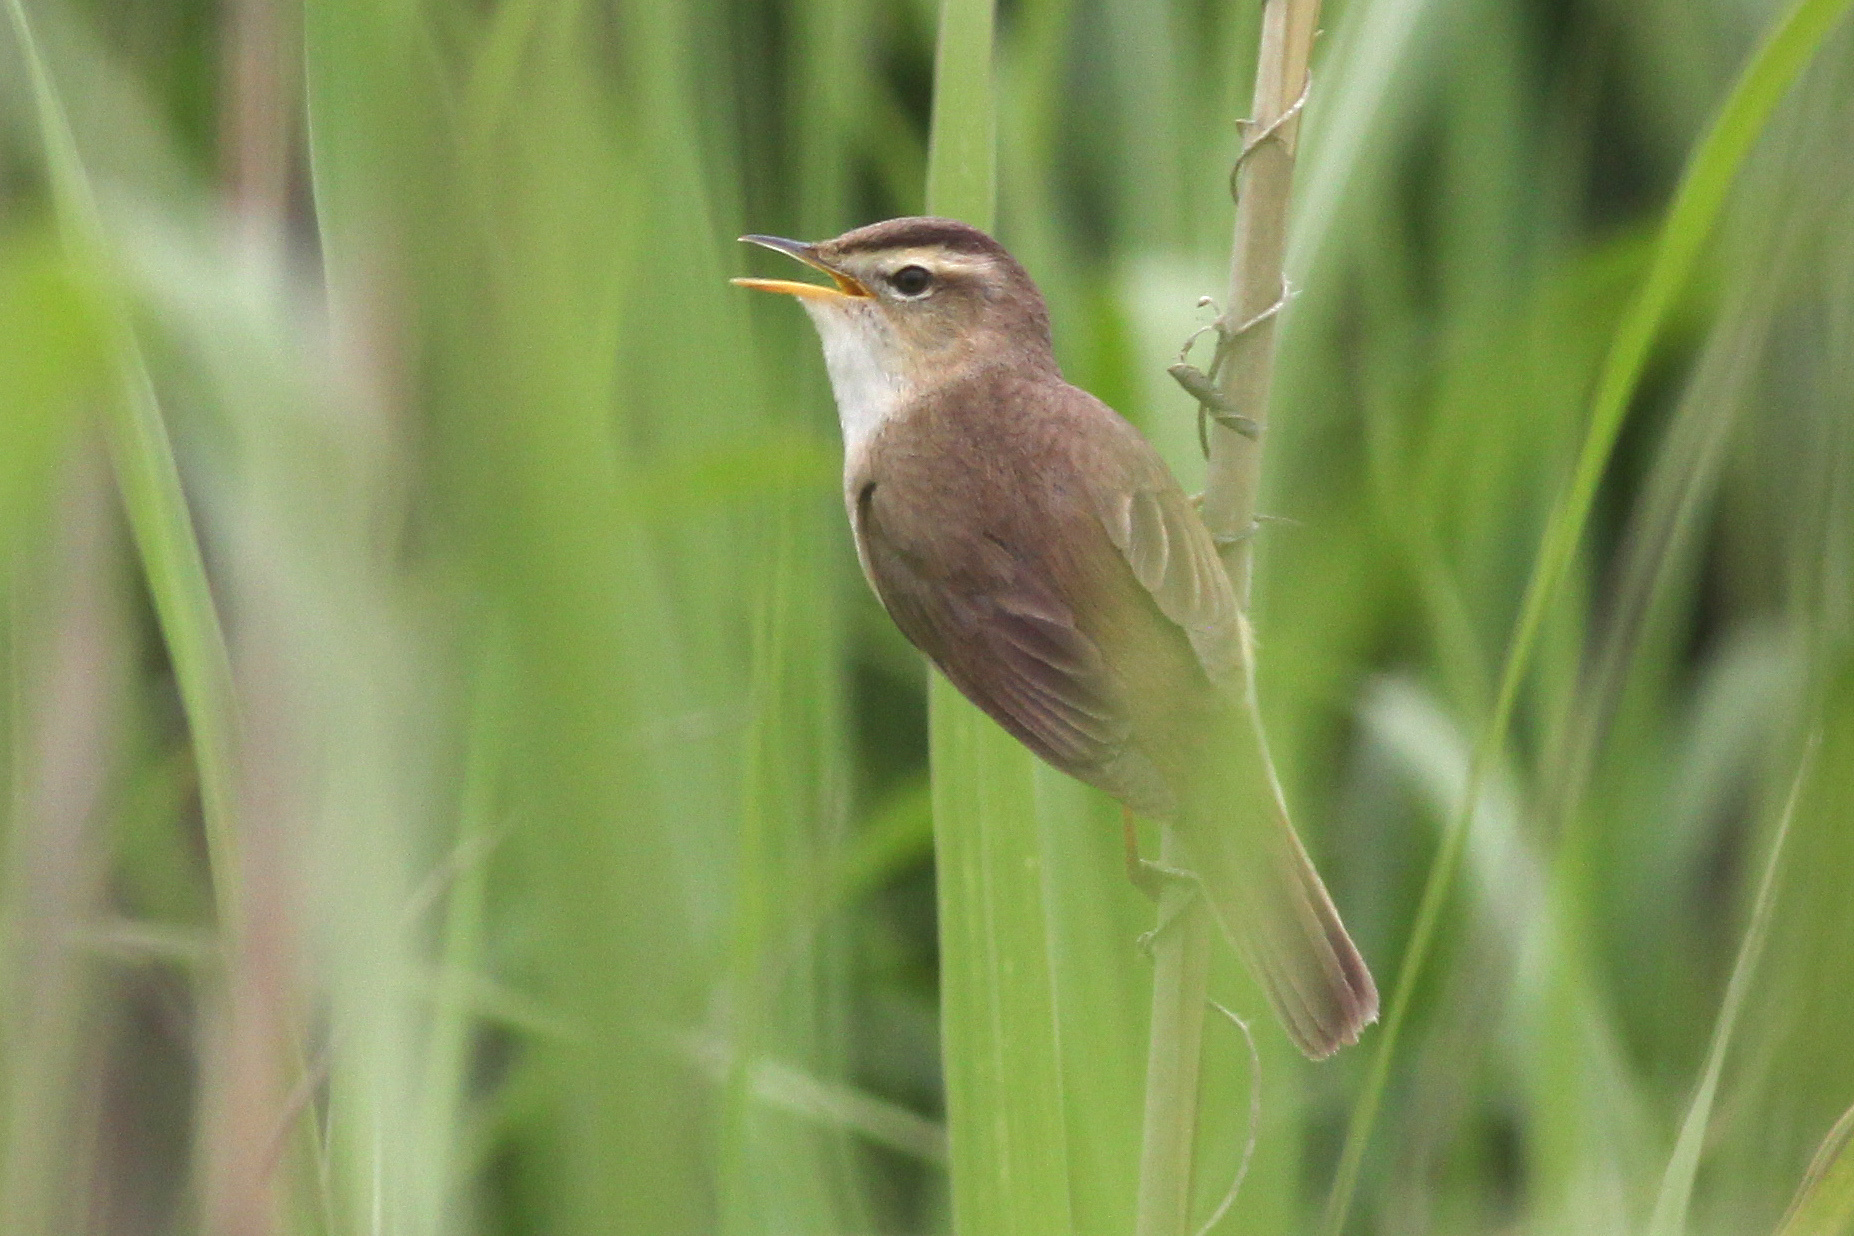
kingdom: Animalia
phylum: Chordata
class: Aves
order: Passeriformes
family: Acrocephalidae
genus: Acrocephalus
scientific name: Acrocephalus bistrigiceps
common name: Black-browed reed warbler
